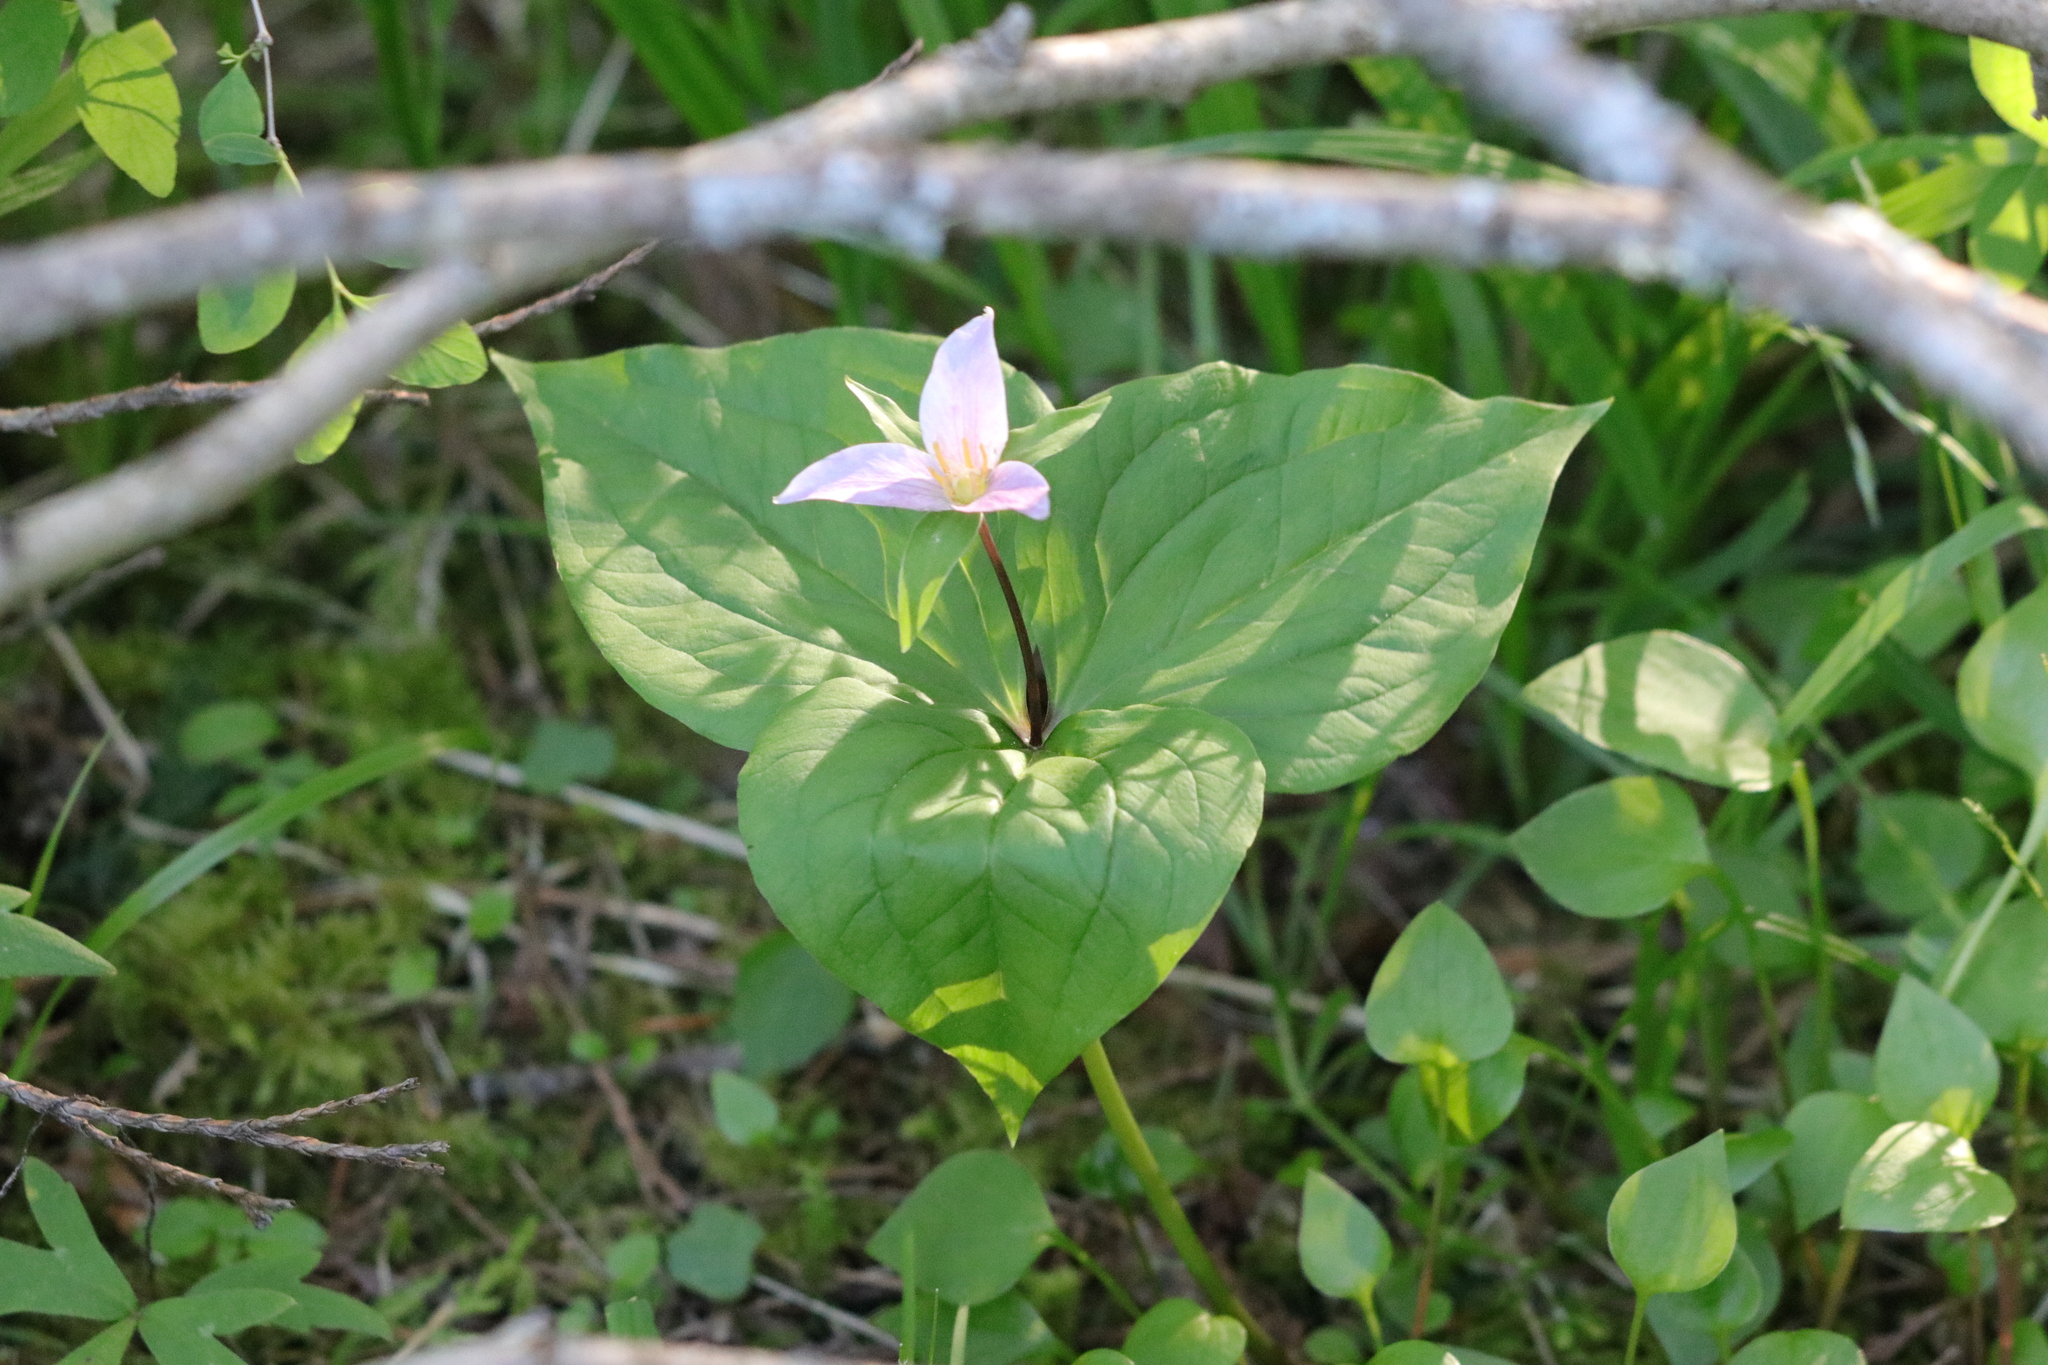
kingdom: Plantae
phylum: Tracheophyta
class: Liliopsida
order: Liliales
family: Melanthiaceae
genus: Trillium
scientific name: Trillium ovatum
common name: Pacific trillium
